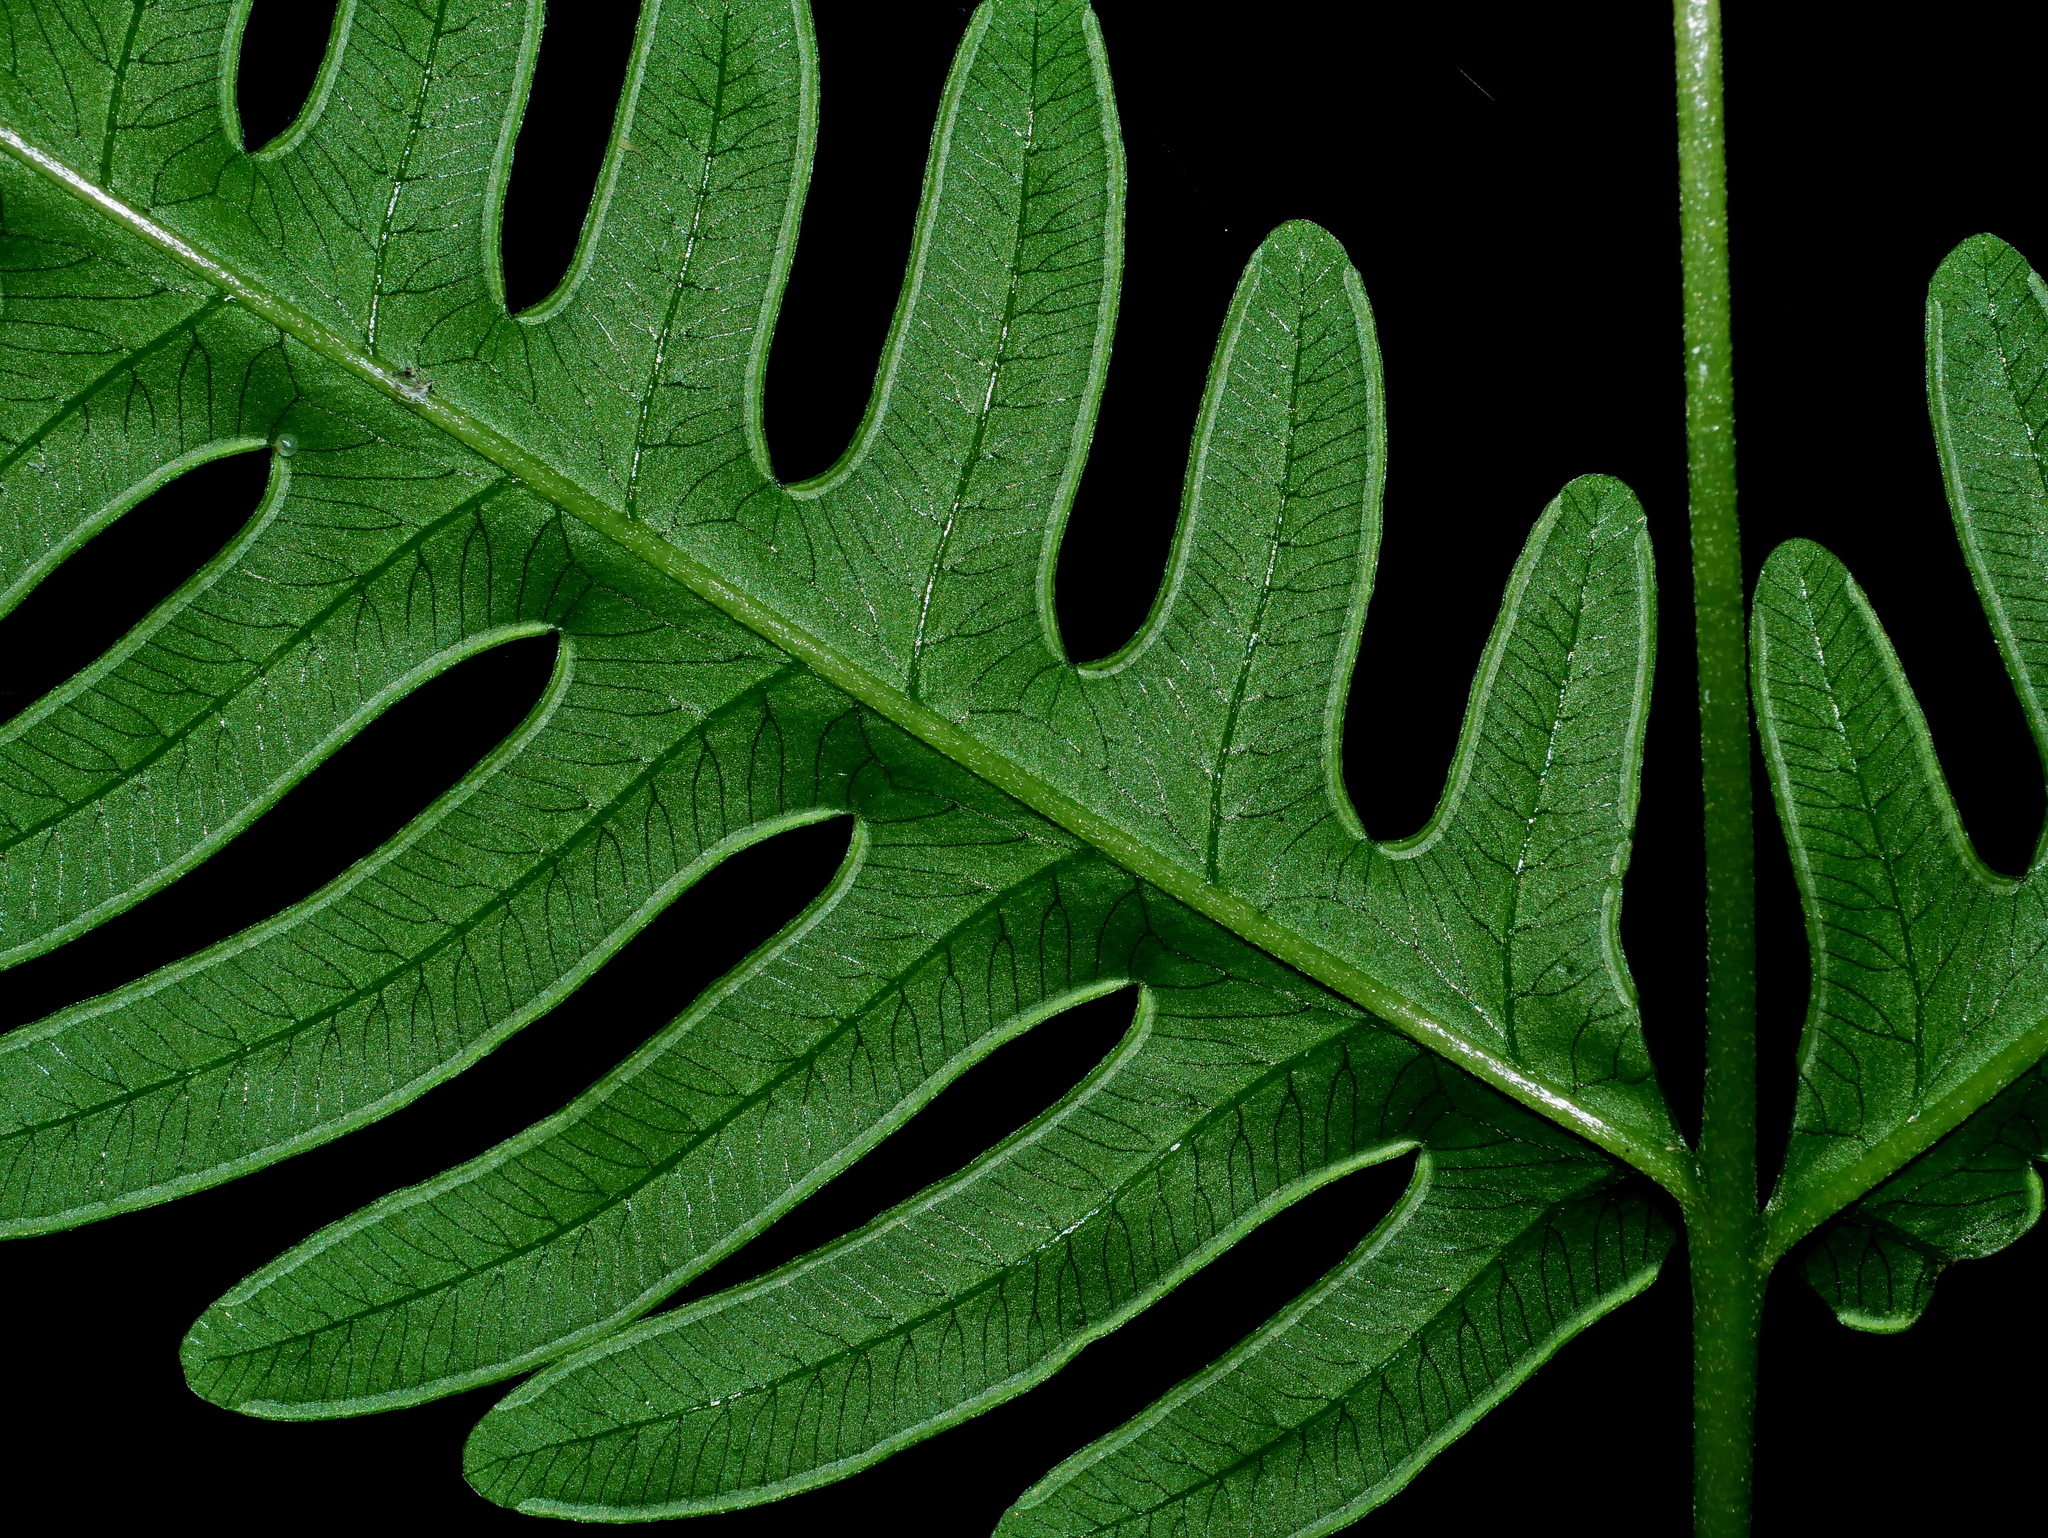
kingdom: Plantae
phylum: Tracheophyta
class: Polypodiopsida
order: Polypodiales
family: Pteridaceae
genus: Pteris
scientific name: Pteris biaurita
